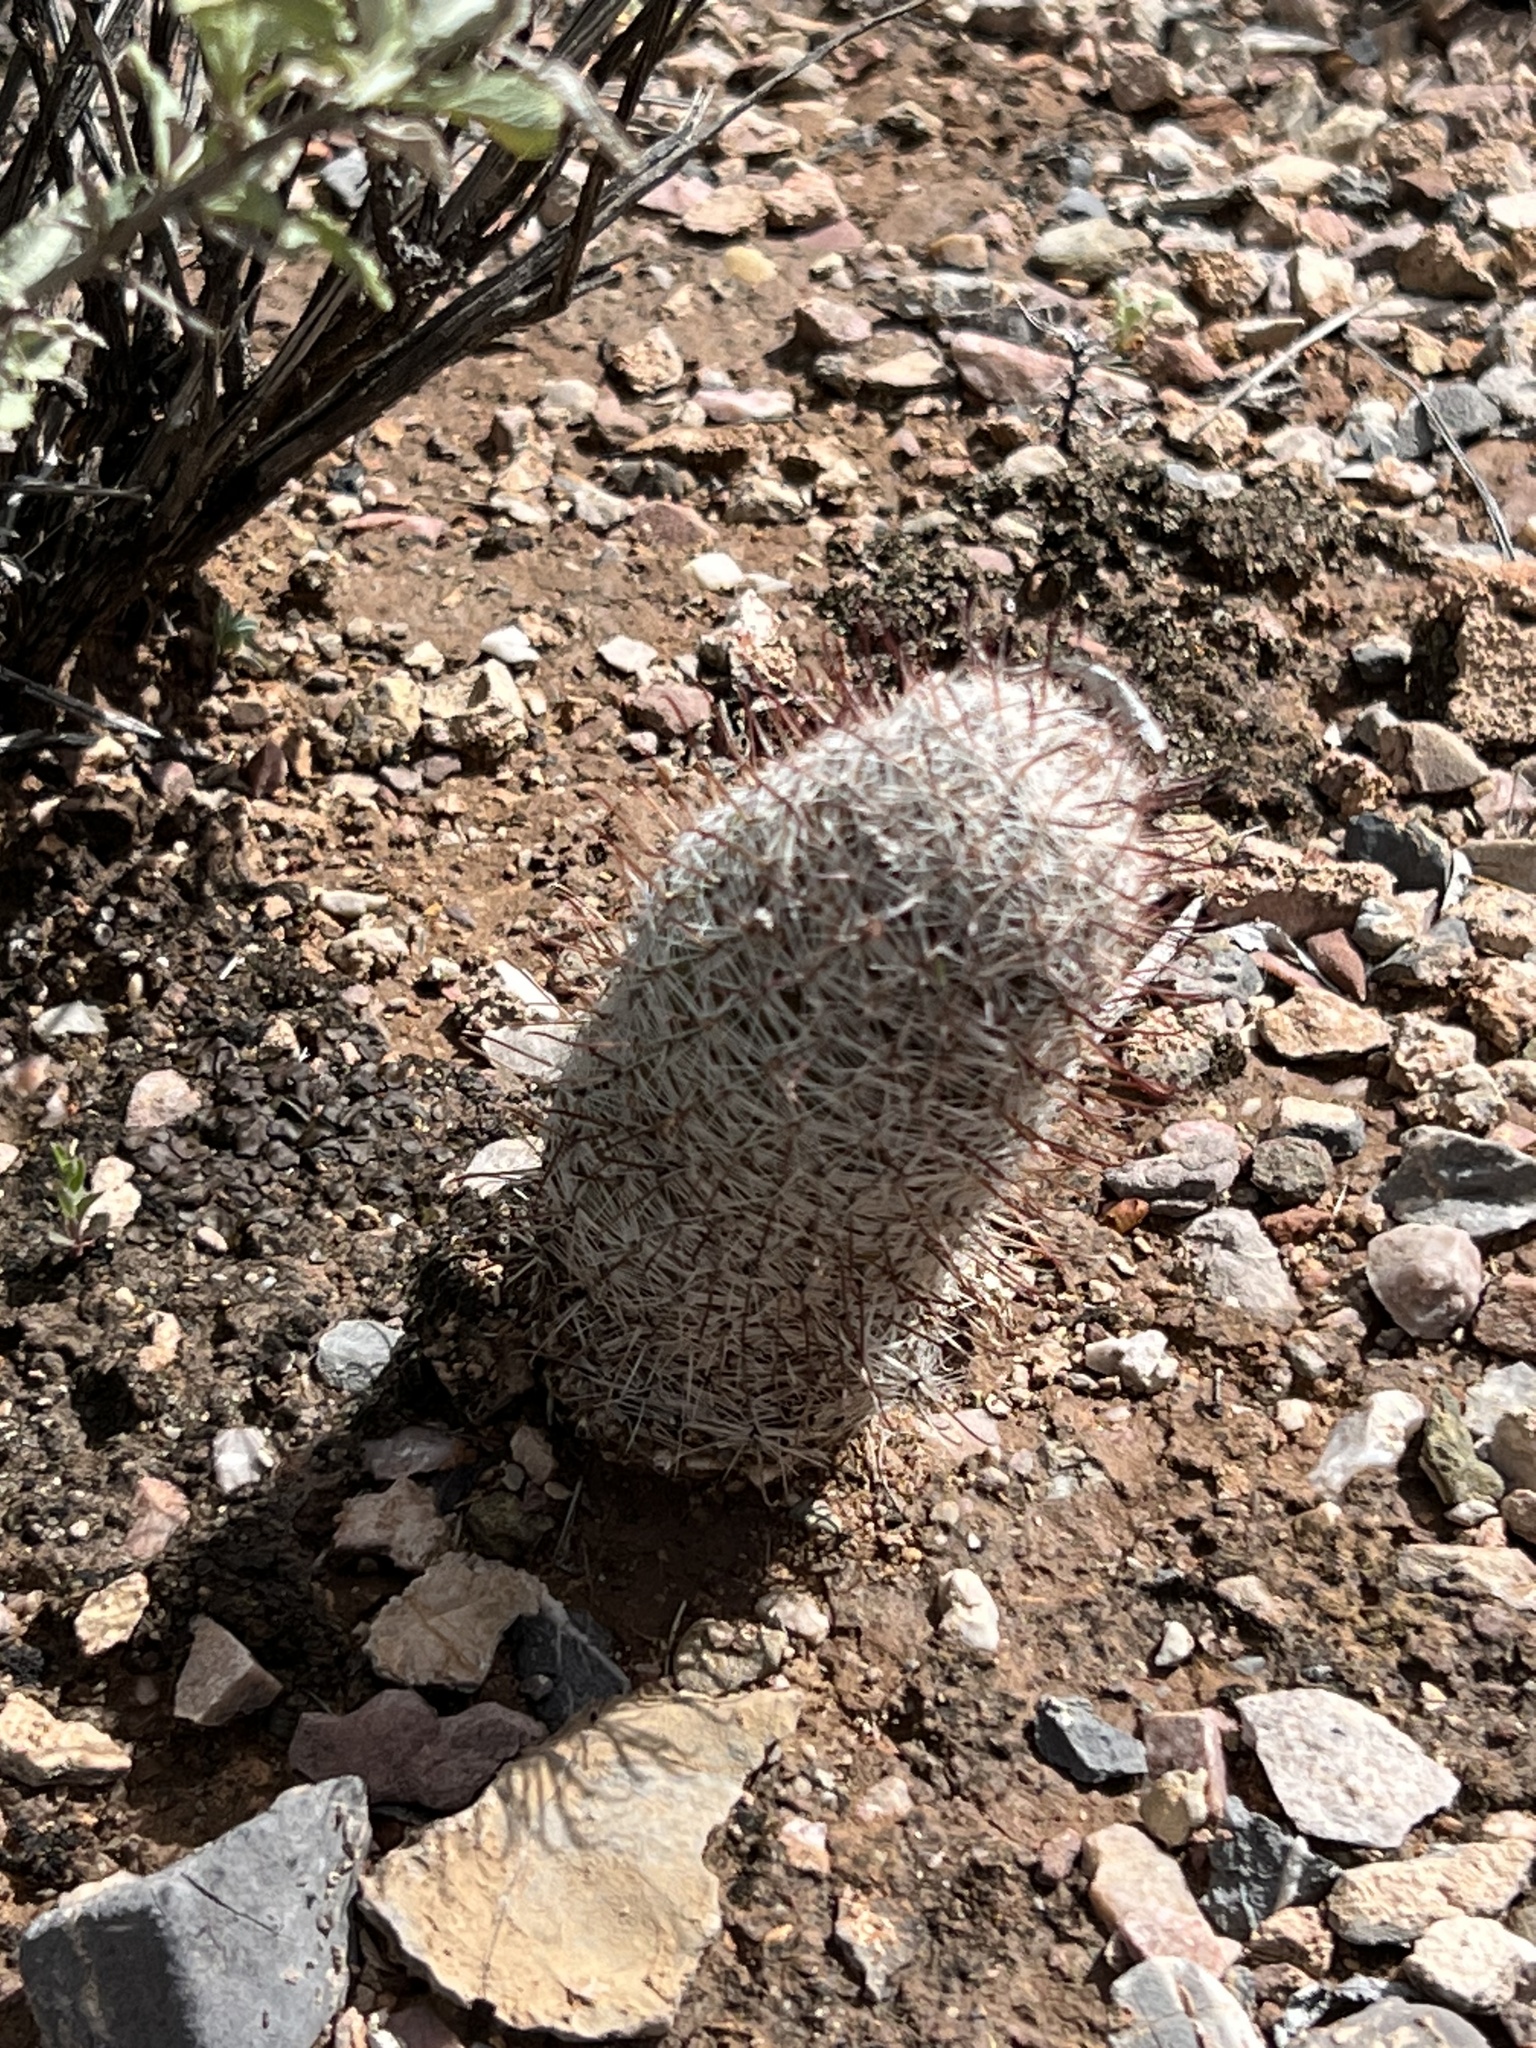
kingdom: Plantae
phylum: Tracheophyta
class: Magnoliopsida
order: Caryophyllales
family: Cactaceae
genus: Cochemiea
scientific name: Cochemiea grahamii
